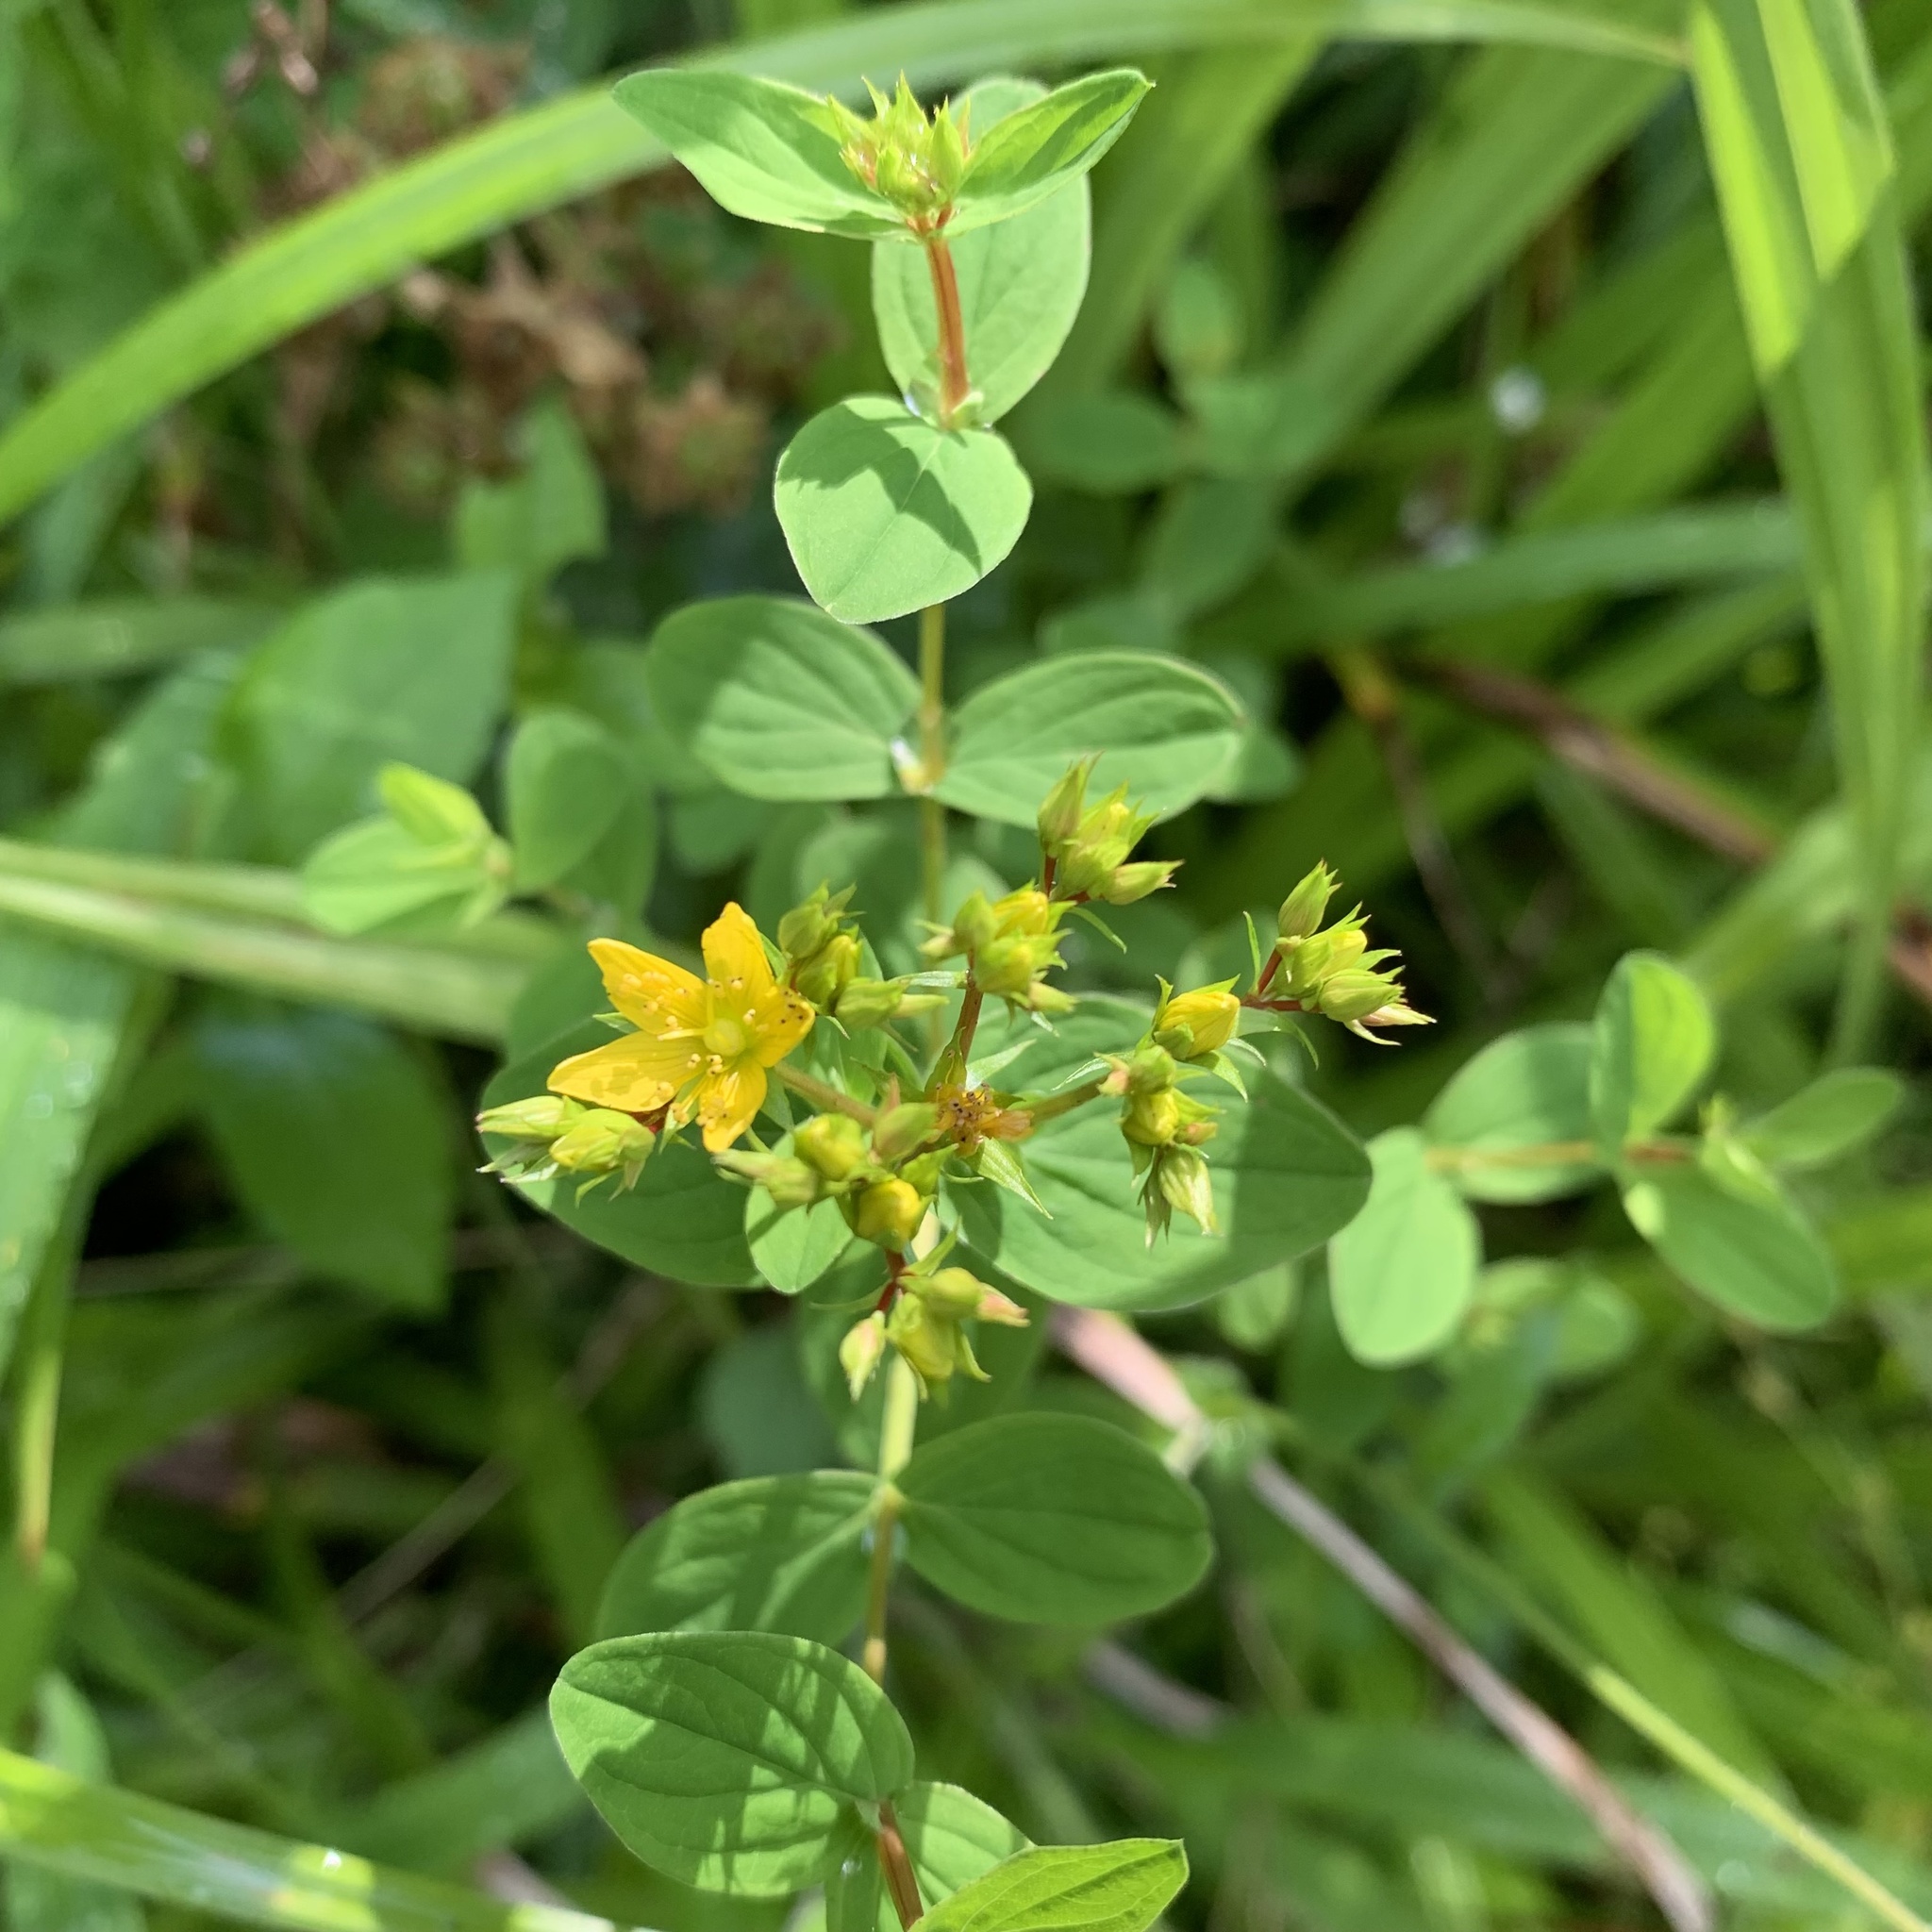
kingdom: Plantae
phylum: Tracheophyta
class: Magnoliopsida
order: Malpighiales
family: Hypericaceae
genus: Hypericum
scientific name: Hypericum tetrapterum
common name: Square-stalked st. john's-wort
